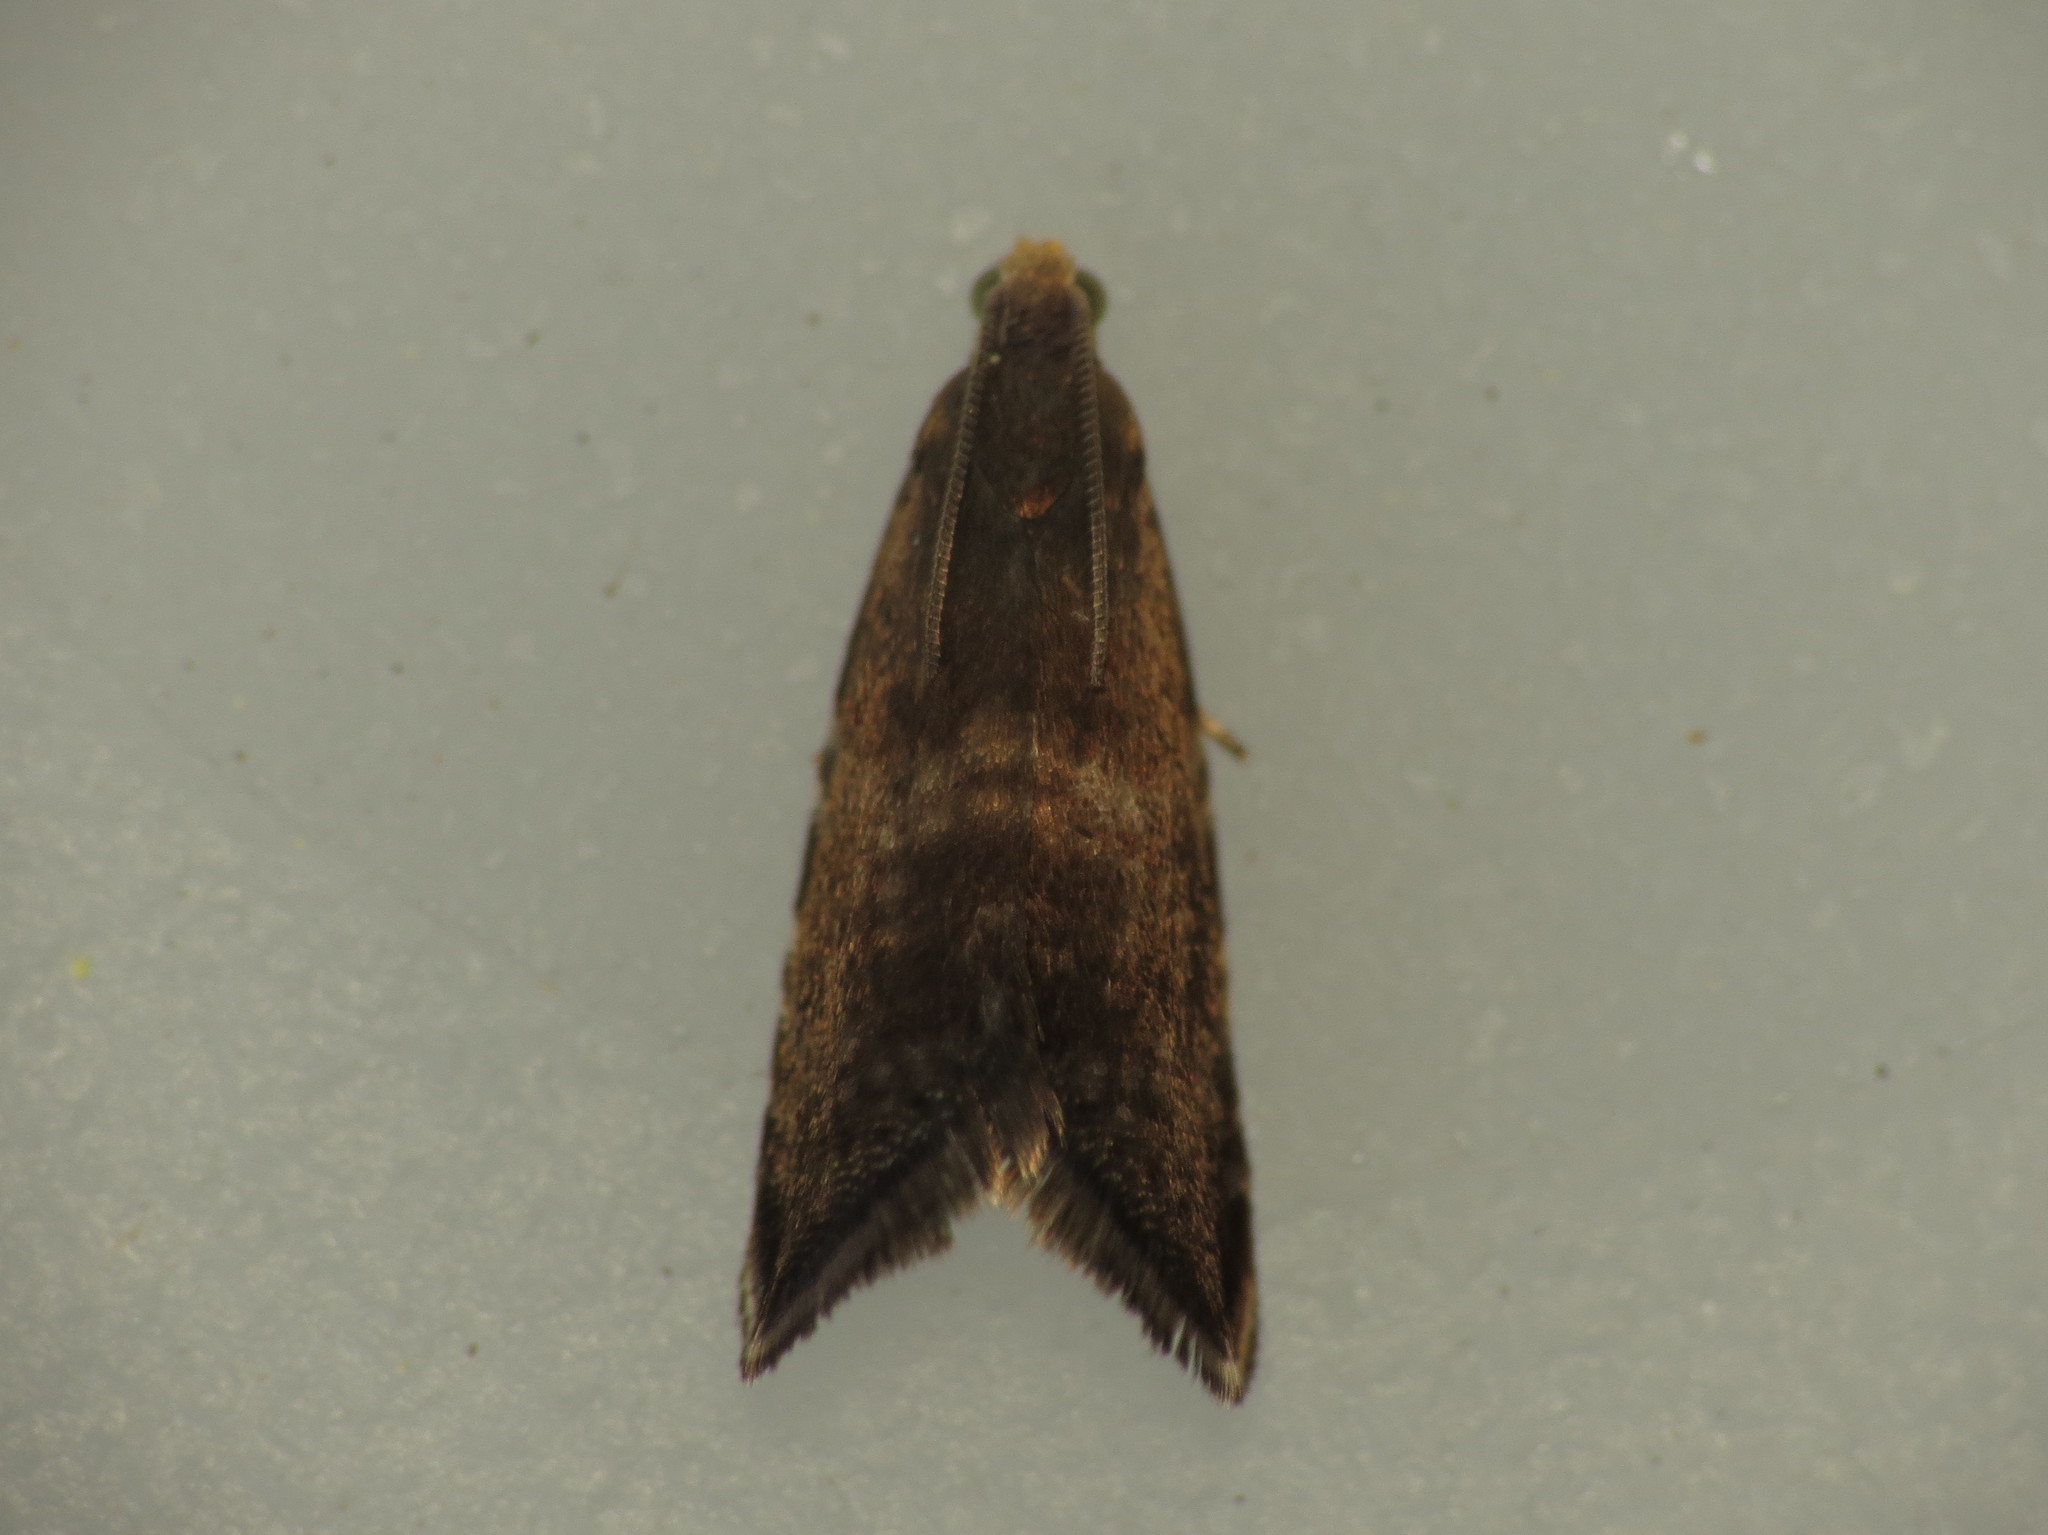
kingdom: Animalia
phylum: Arthropoda
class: Insecta
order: Lepidoptera
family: Tortricidae
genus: Strophedra
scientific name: Strophedra weirana
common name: Little beech piercer
